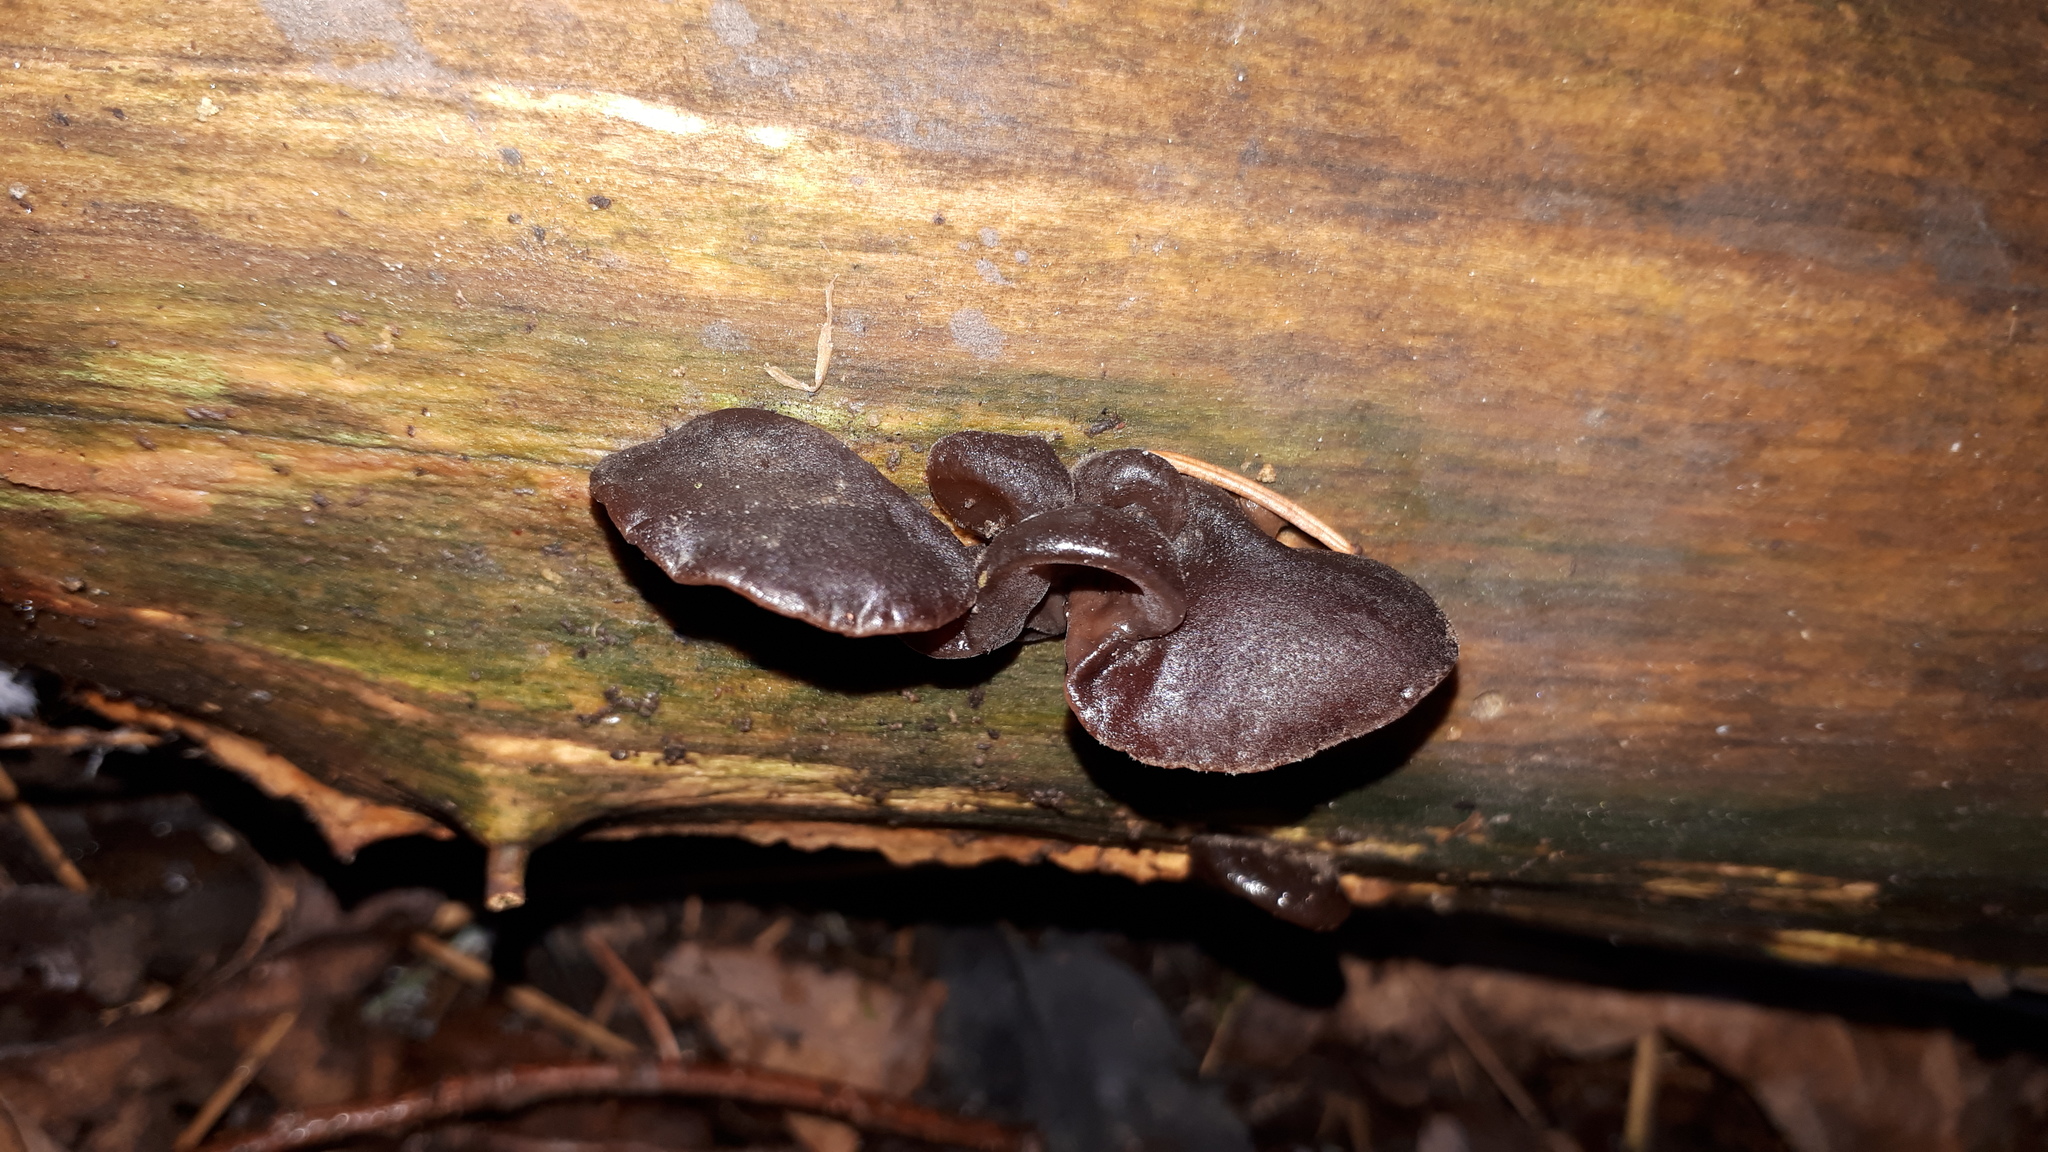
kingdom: Fungi
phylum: Basidiomycota
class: Agaricomycetes
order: Auriculariales
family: Auriculariaceae
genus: Auricularia
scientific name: Auricularia auricula-judae
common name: Jelly ear
